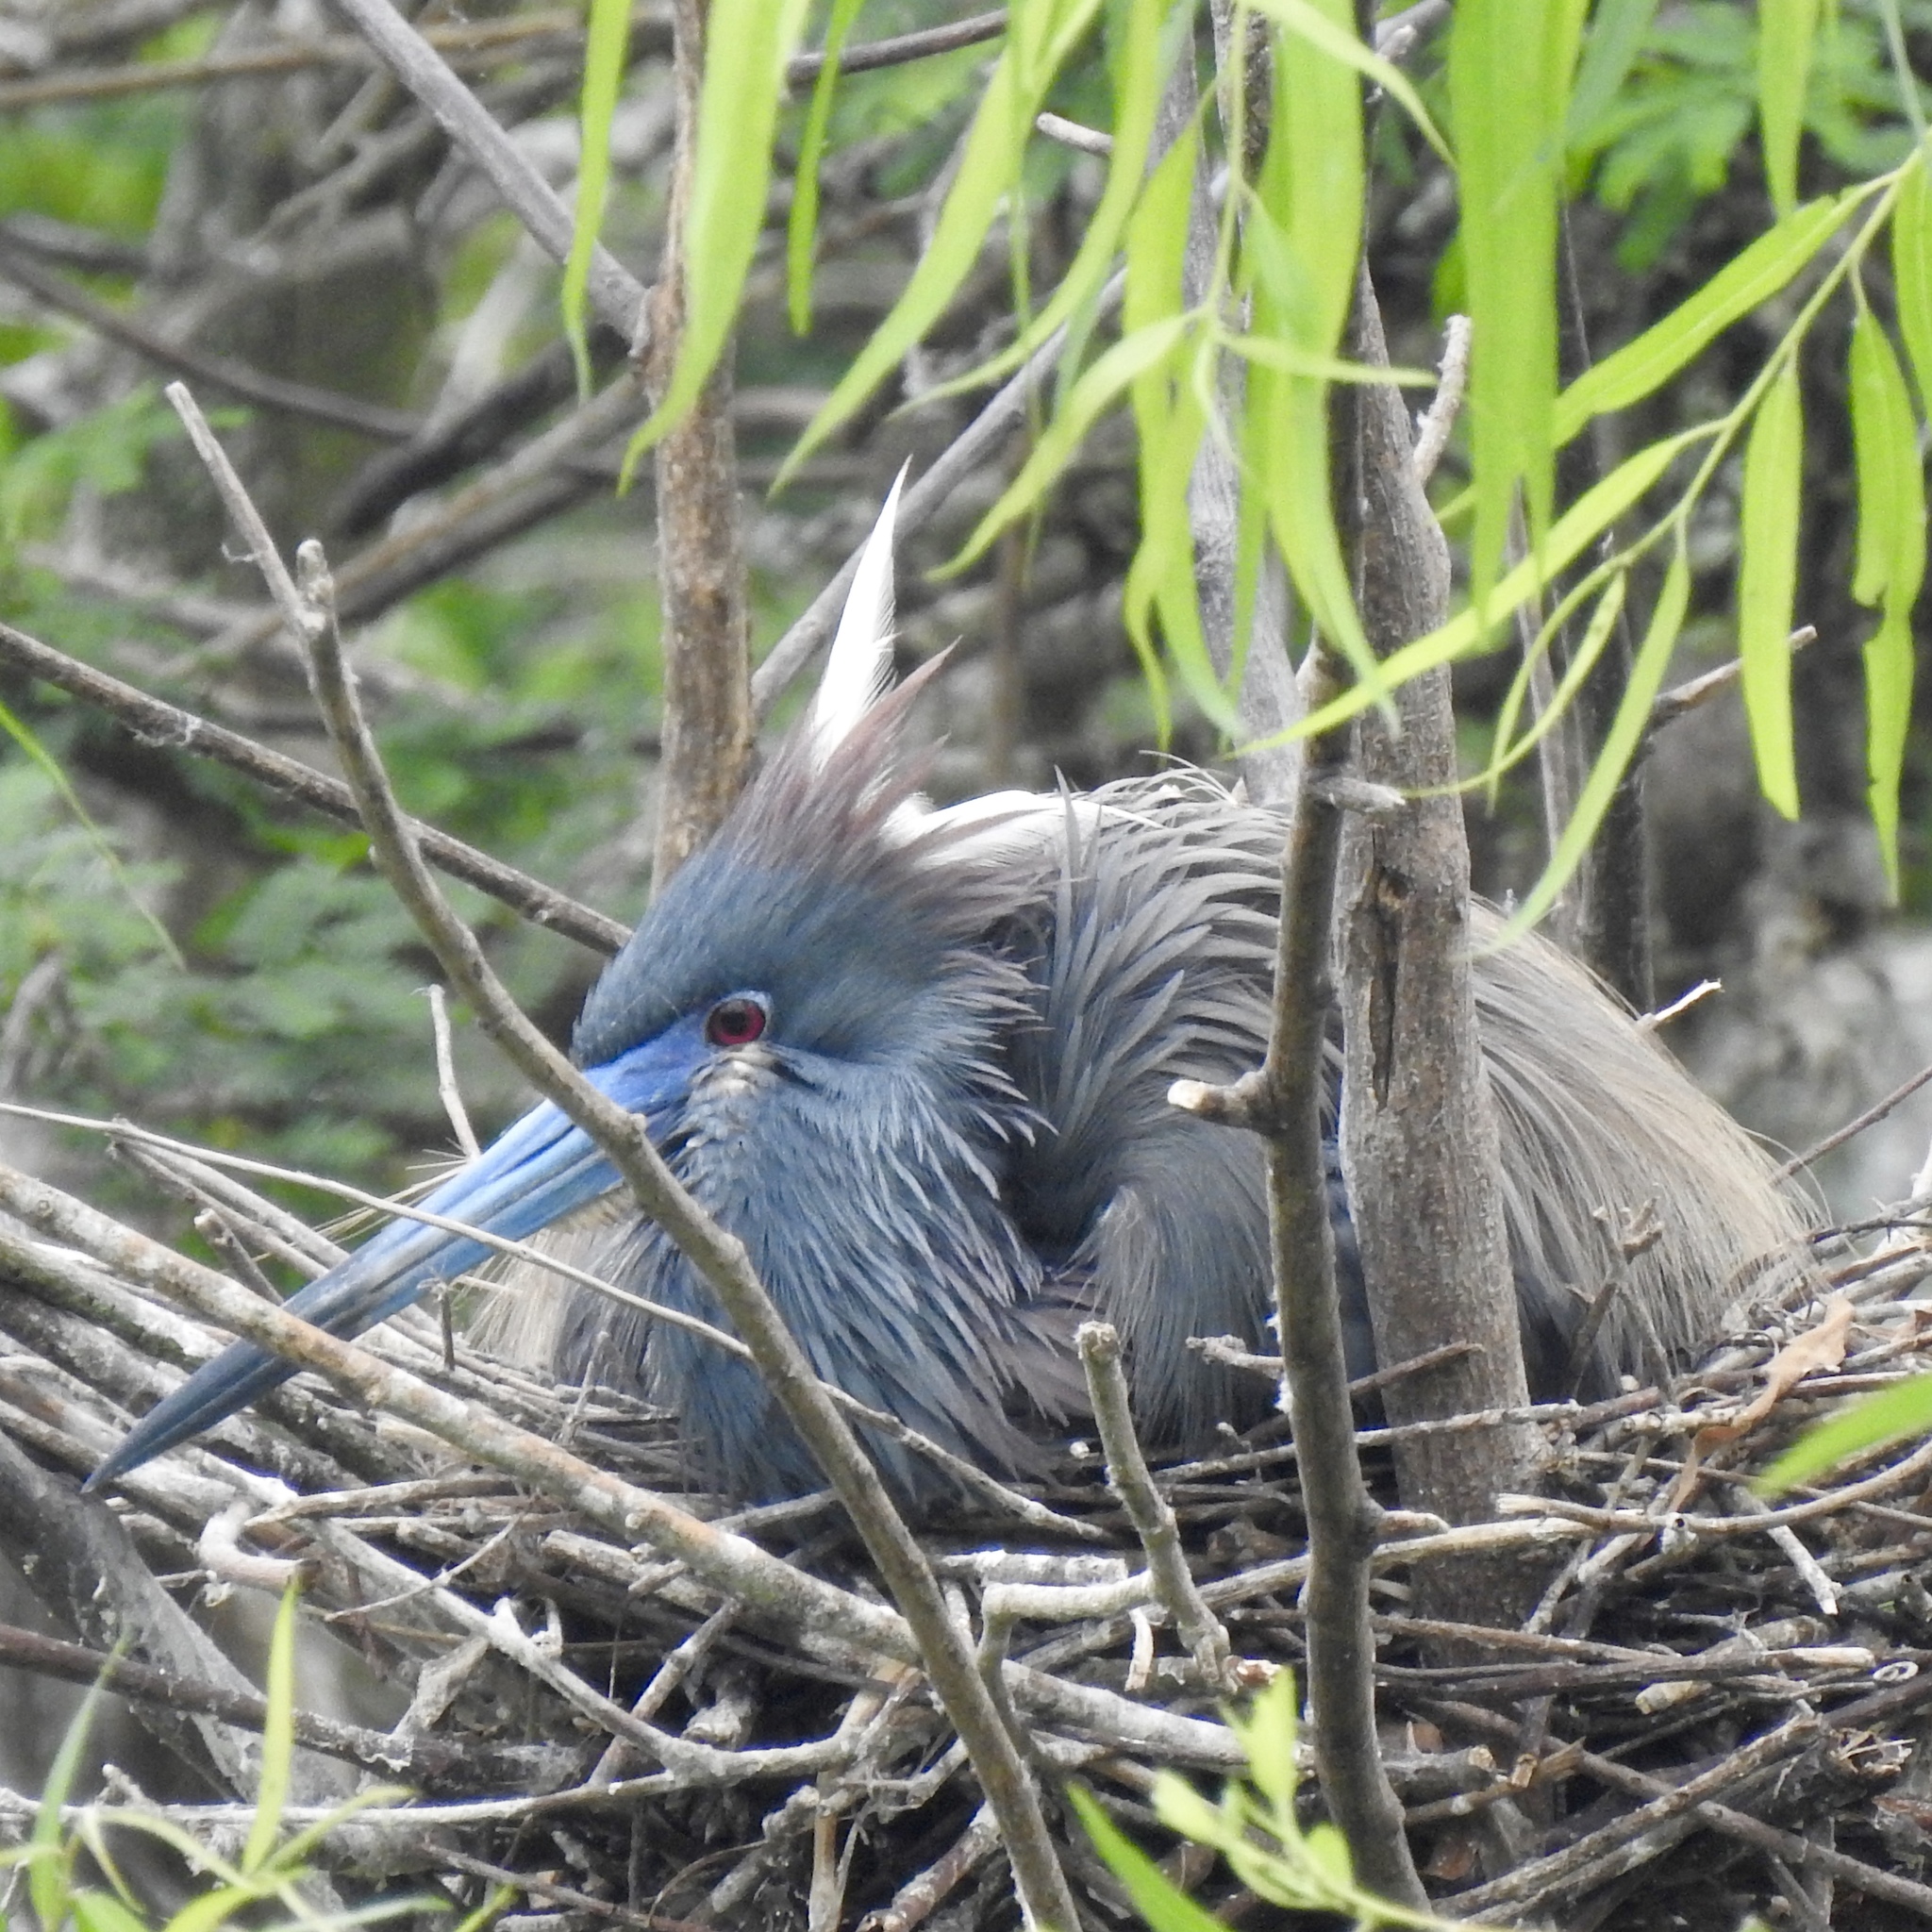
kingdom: Animalia
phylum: Chordata
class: Aves
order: Pelecaniformes
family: Ardeidae
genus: Egretta
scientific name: Egretta tricolor
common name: Tricolored heron
